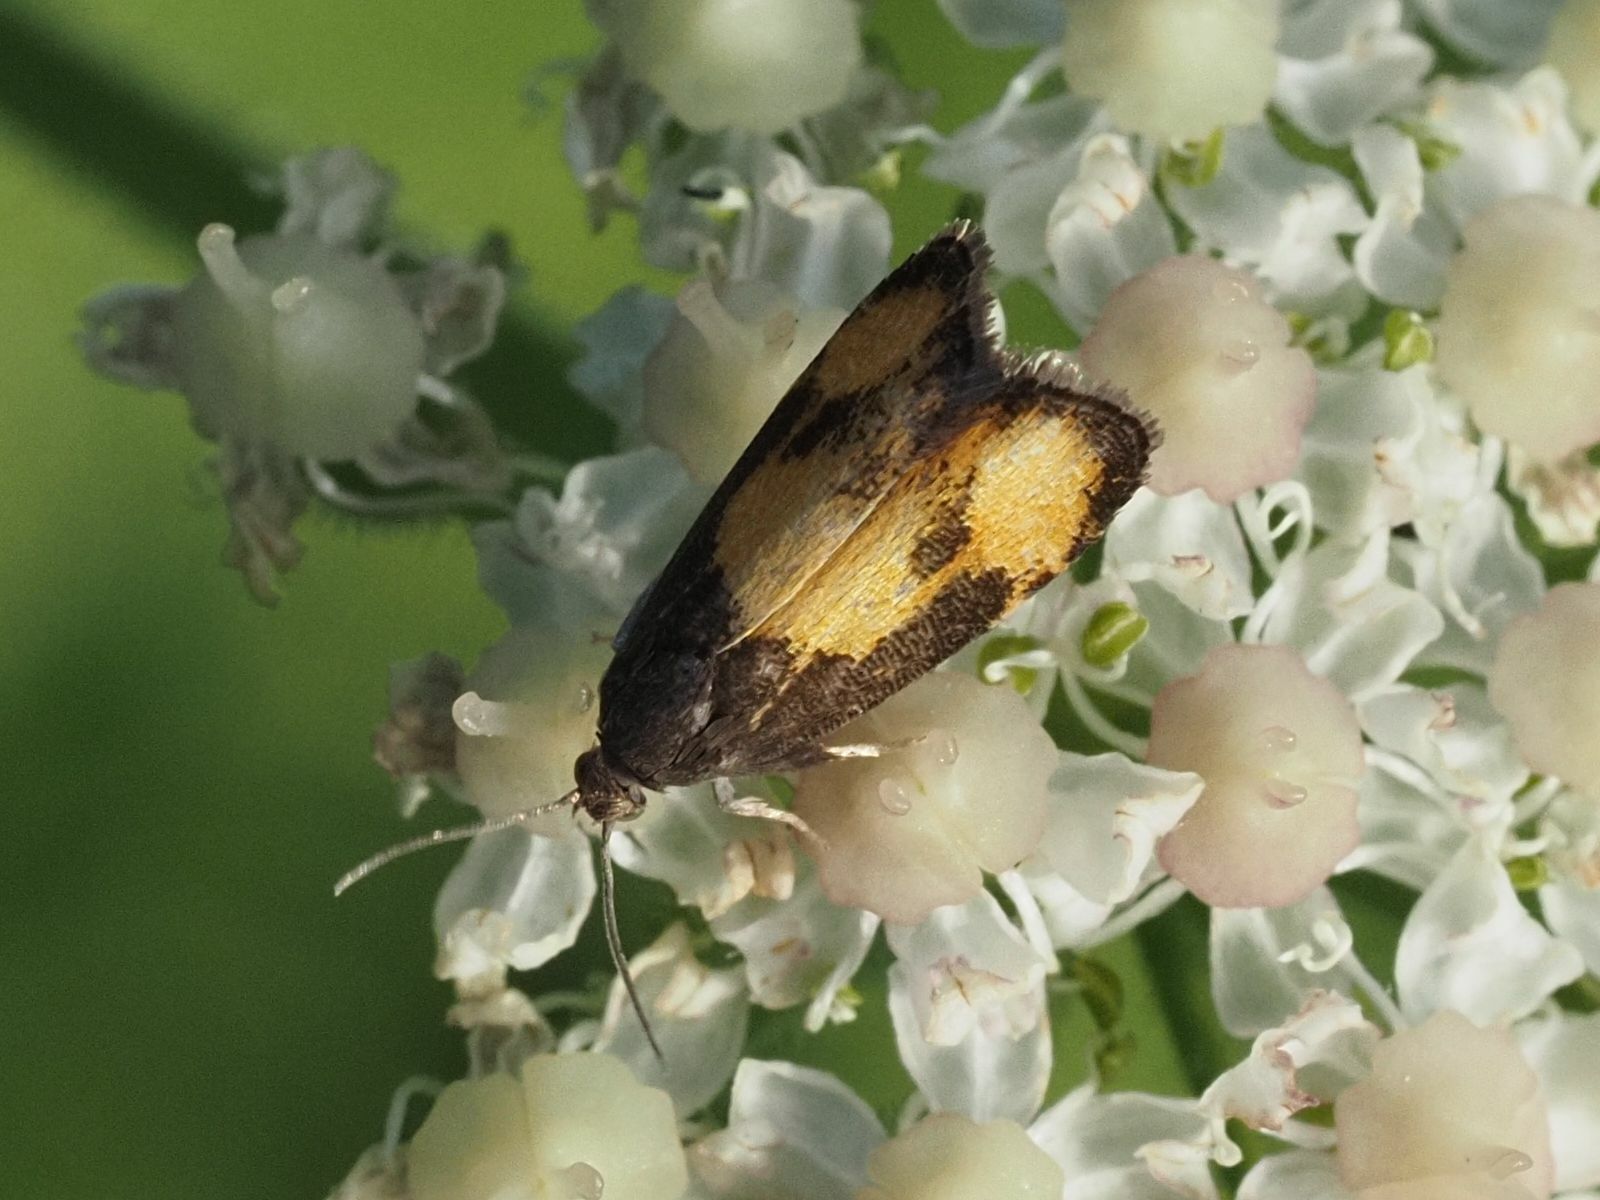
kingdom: Animalia
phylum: Arthropoda
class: Insecta
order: Lepidoptera
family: Tortricidae
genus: Pammene
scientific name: Pammene aurana
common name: Orange-spot piercer
